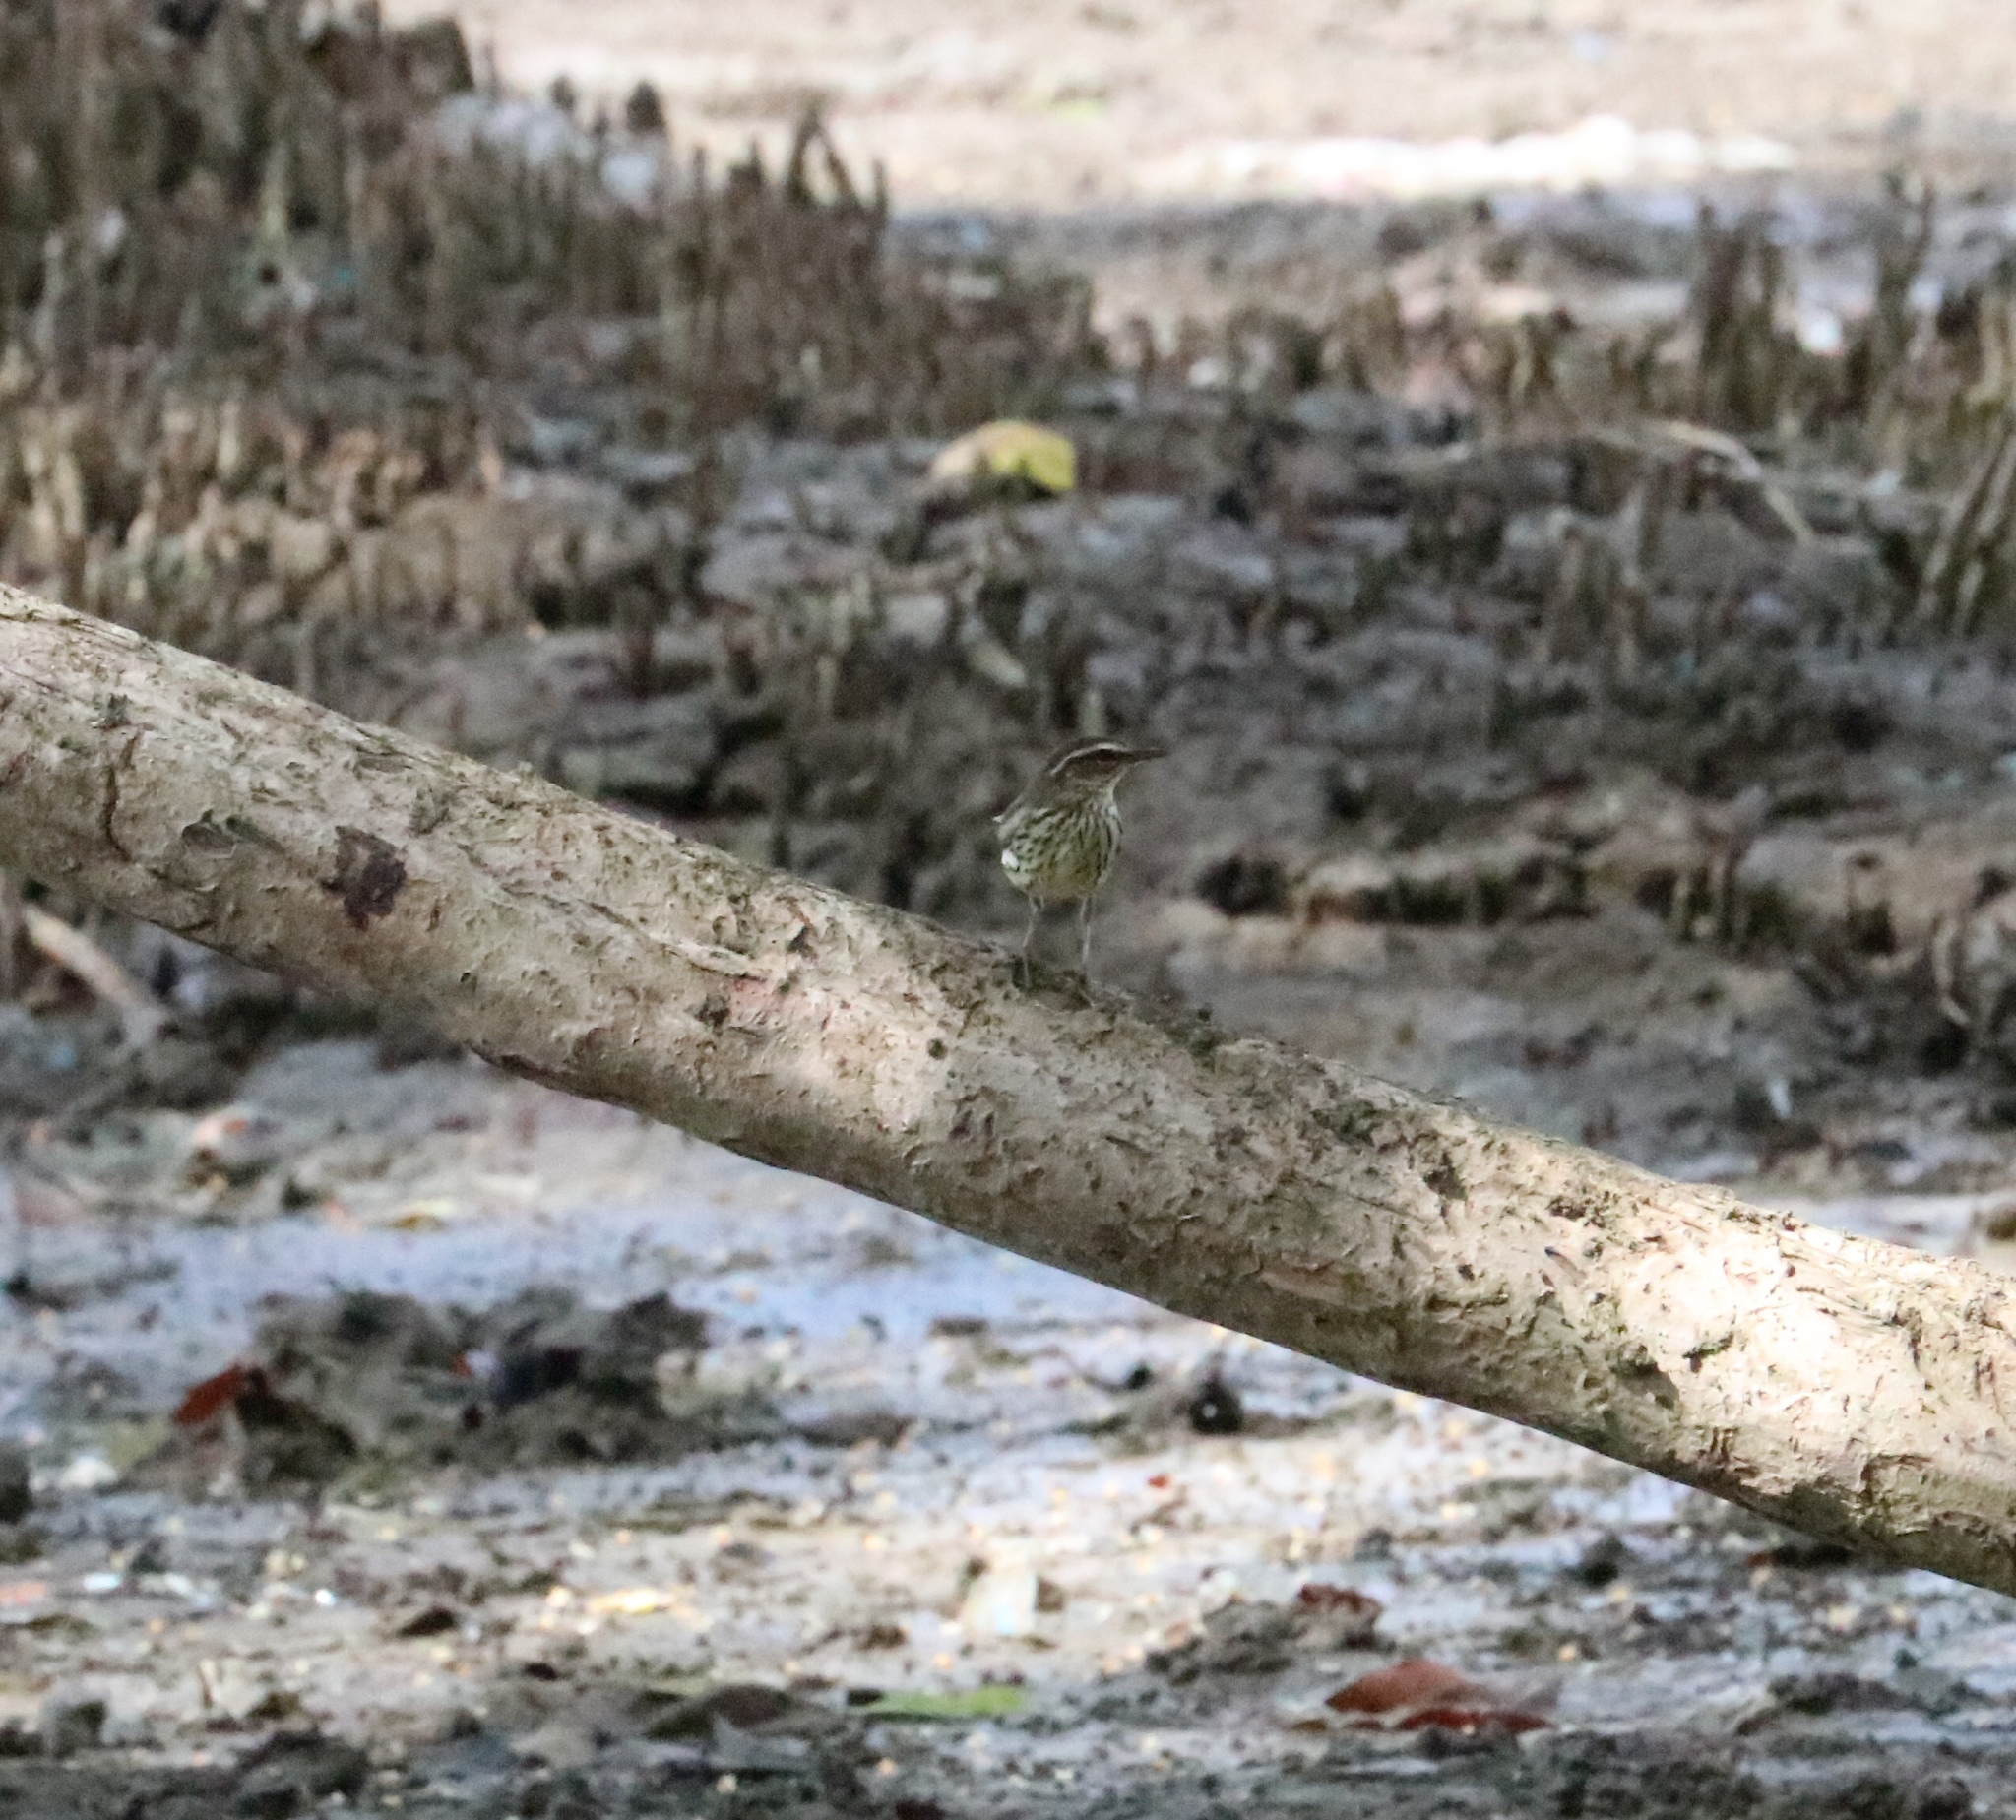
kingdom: Animalia
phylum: Chordata
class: Aves
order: Passeriformes
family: Parulidae
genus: Parkesia
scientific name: Parkesia noveboracensis
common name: Northern waterthrush
